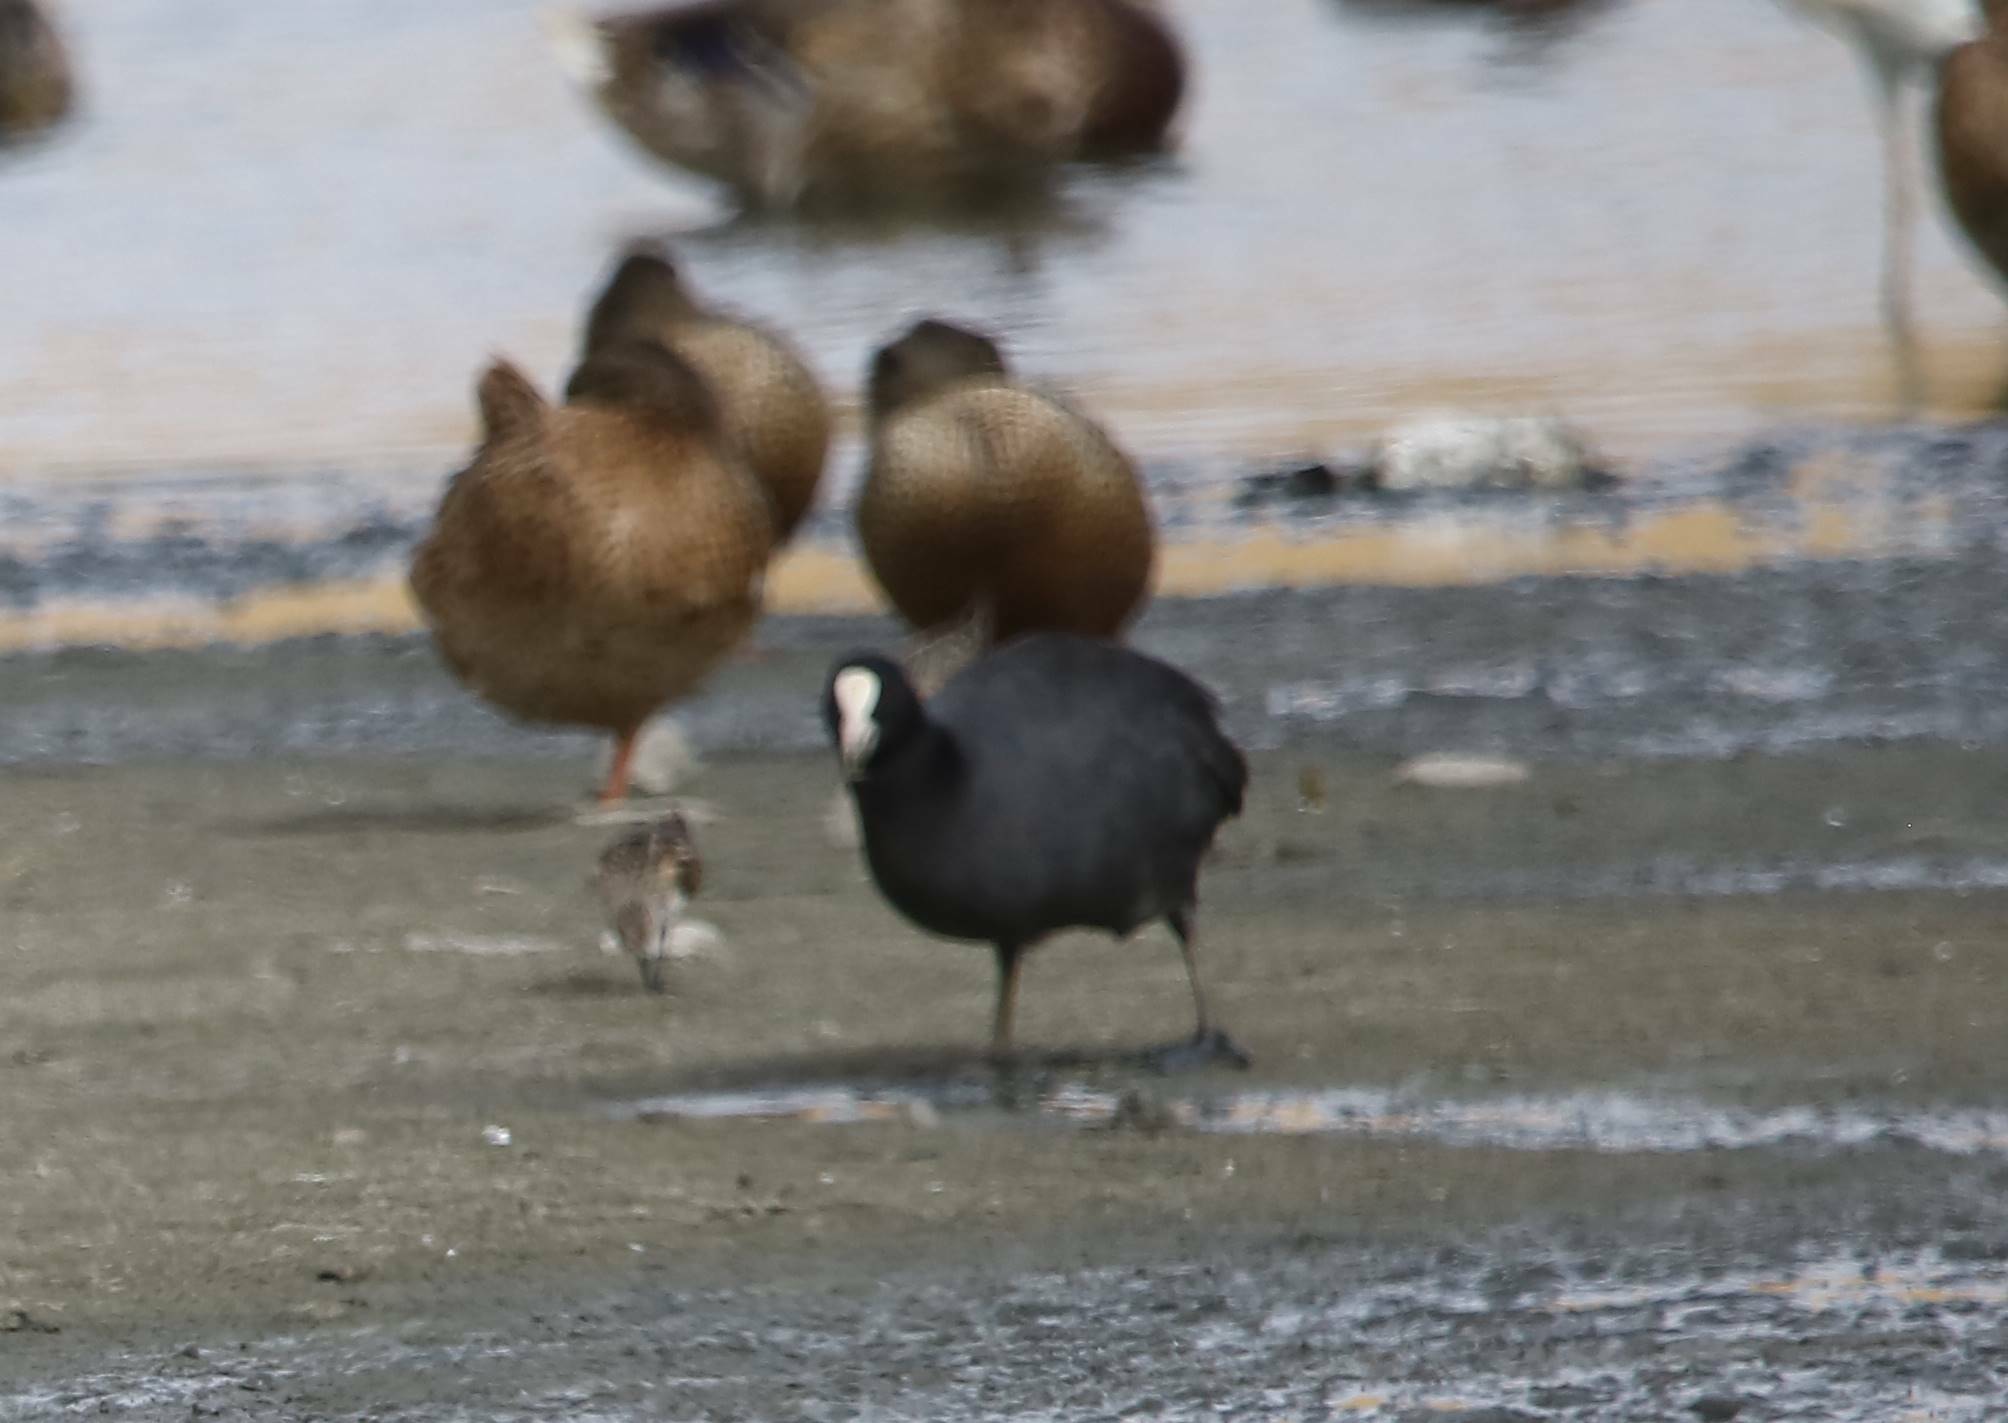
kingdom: Animalia
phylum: Chordata
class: Aves
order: Gruiformes
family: Rallidae
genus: Fulica
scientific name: Fulica atra
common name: Eurasian coot
